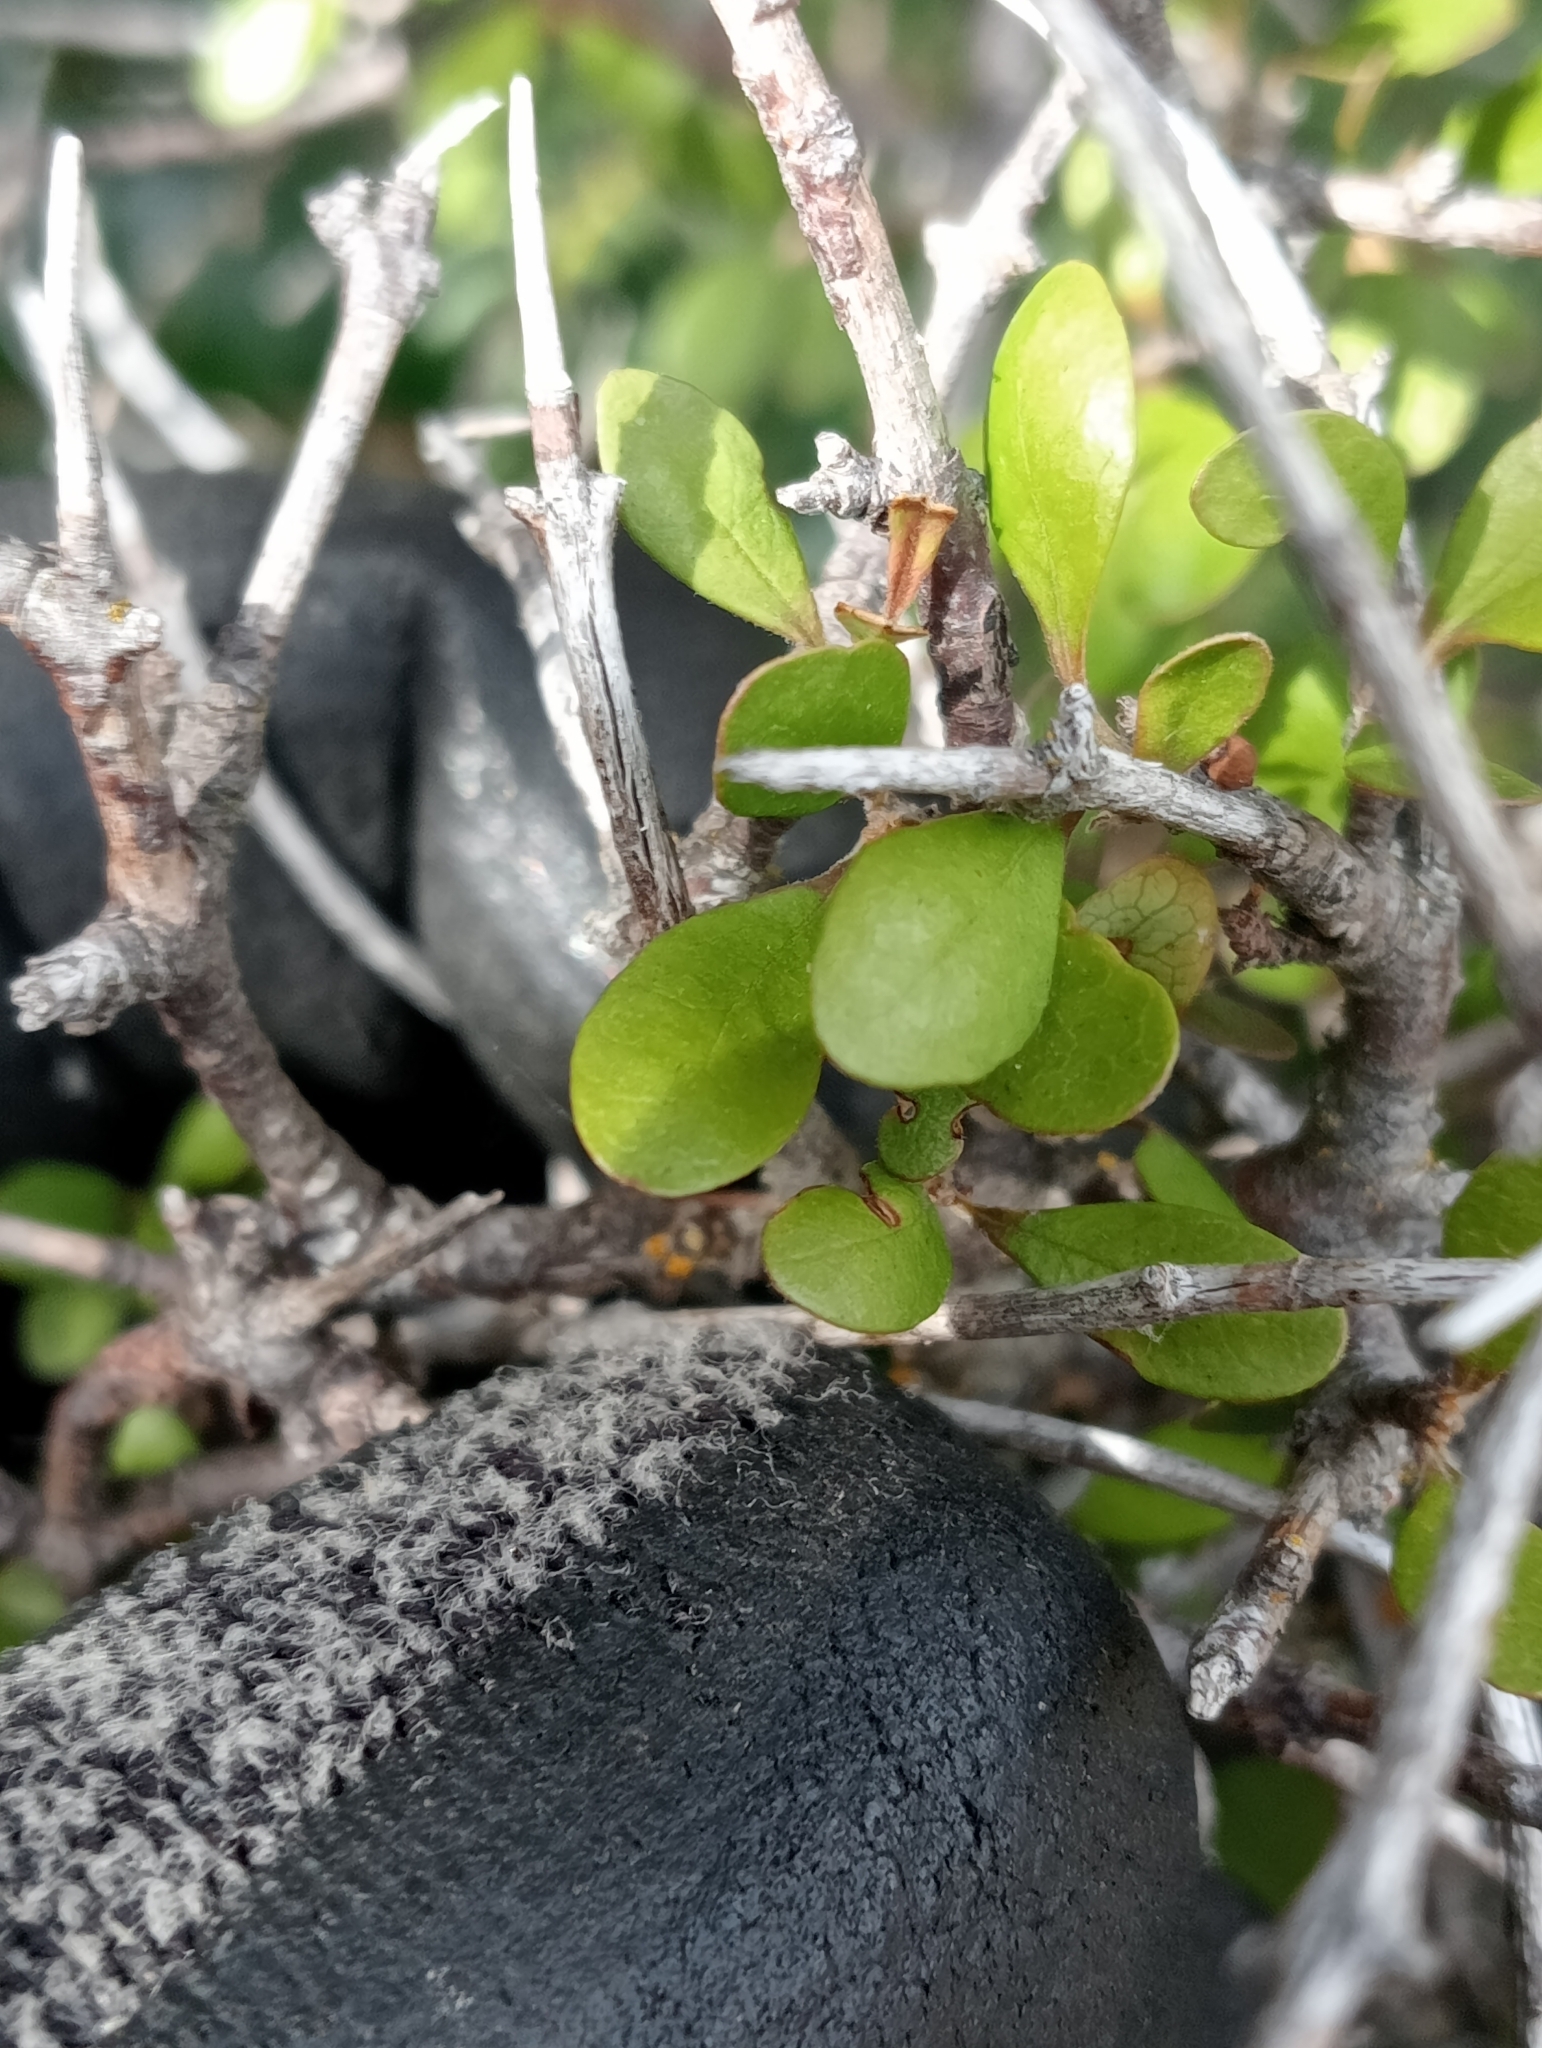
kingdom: Plantae
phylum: Tracheophyta
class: Magnoliopsida
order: Oxalidales
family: Elaeocarpaceae
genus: Aristotelia
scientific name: Aristotelia fruticosa
